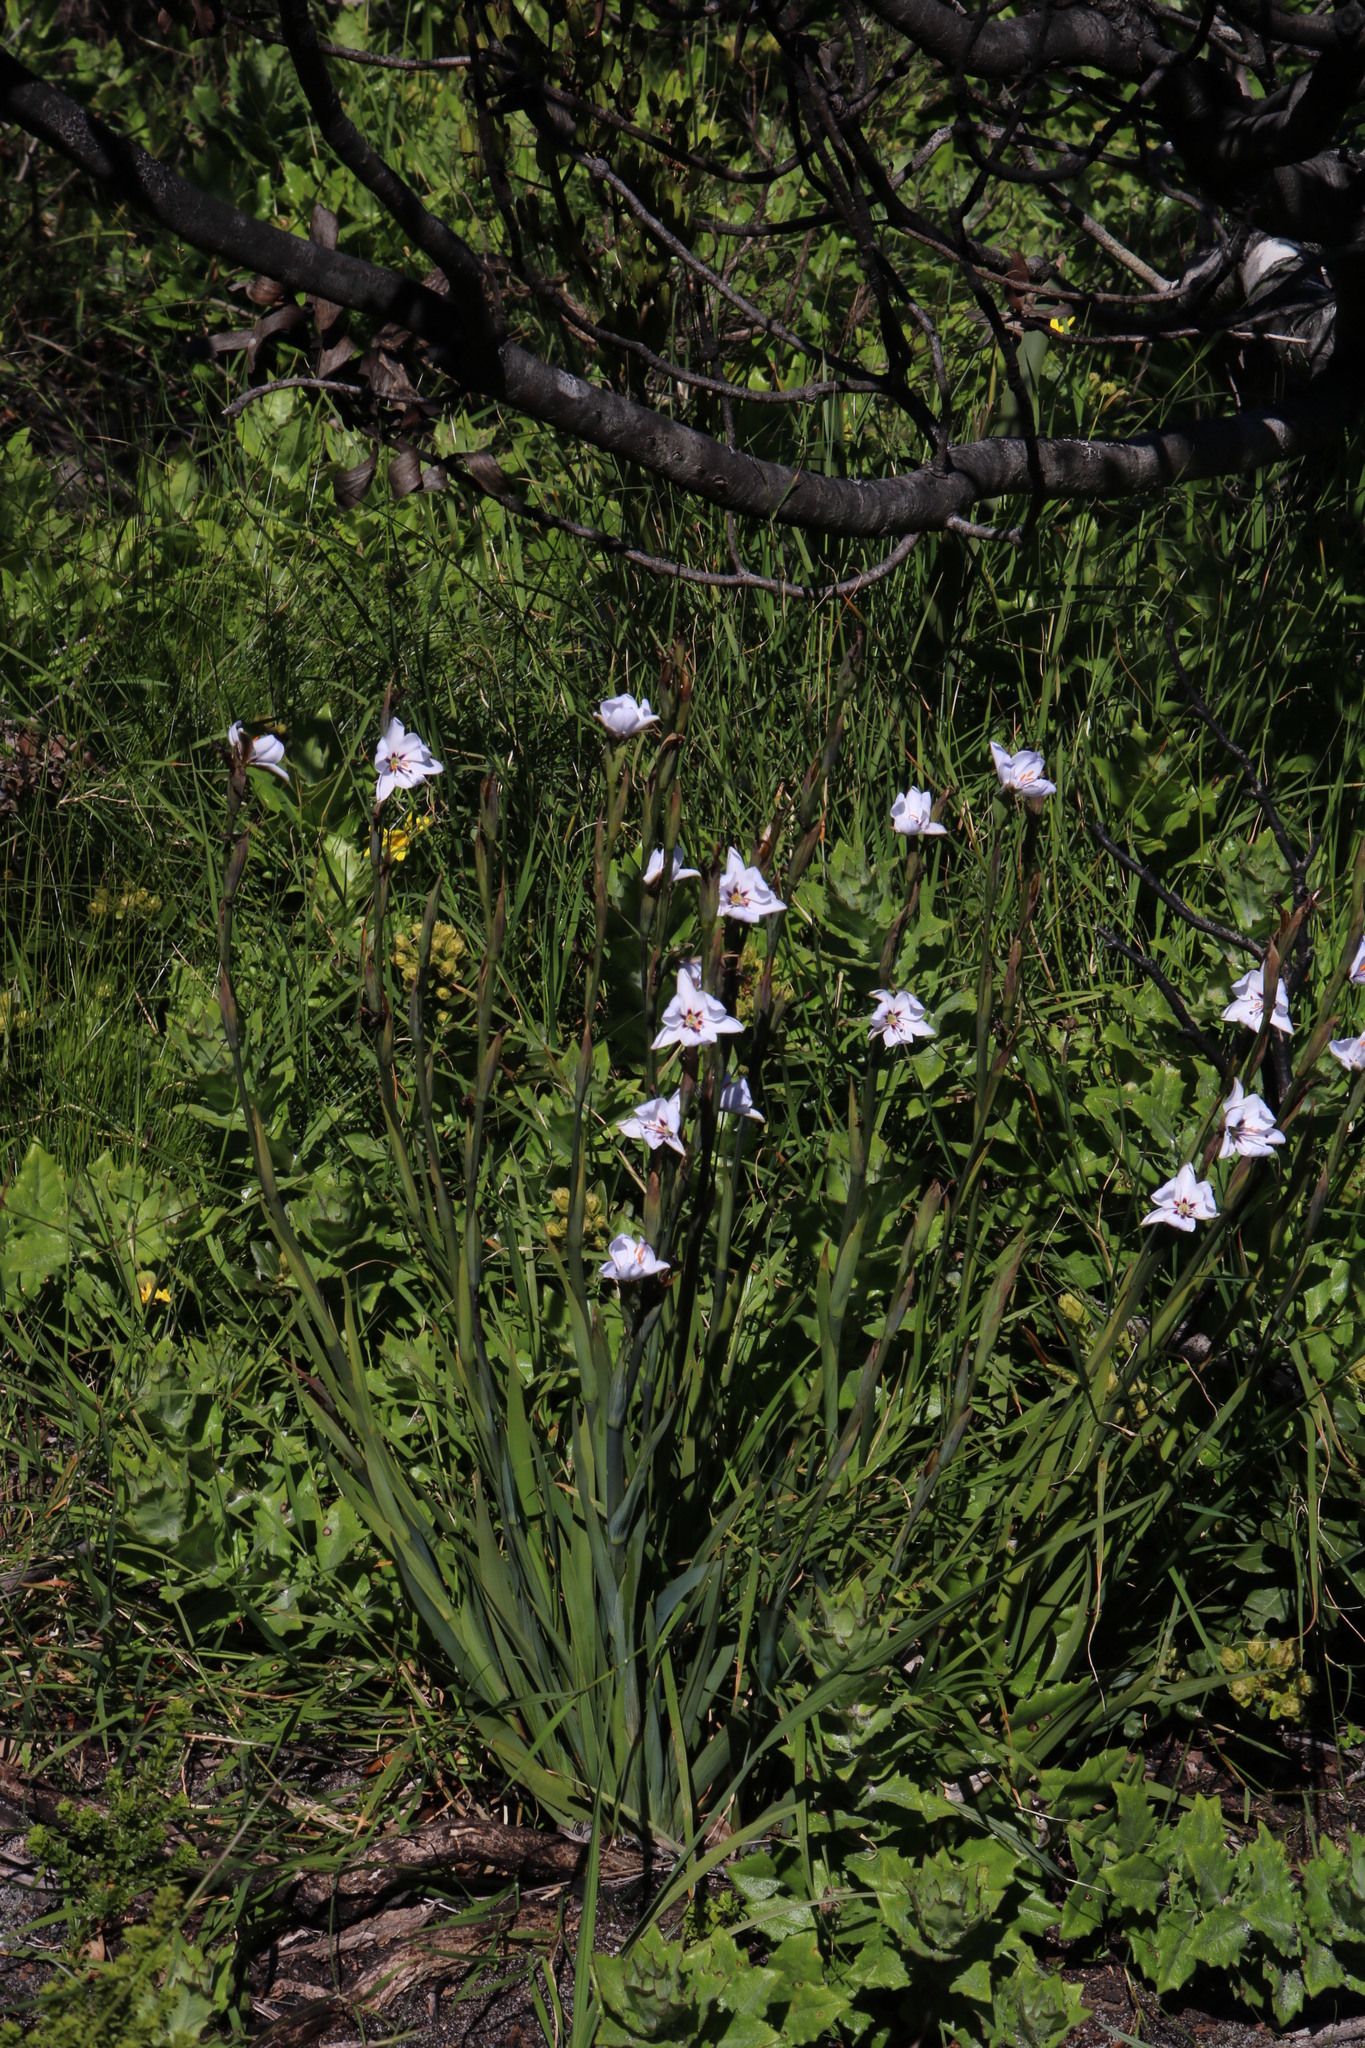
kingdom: Plantae
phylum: Tracheophyta
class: Liliopsida
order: Asparagales
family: Iridaceae
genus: Aristea
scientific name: Aristea spiralis
